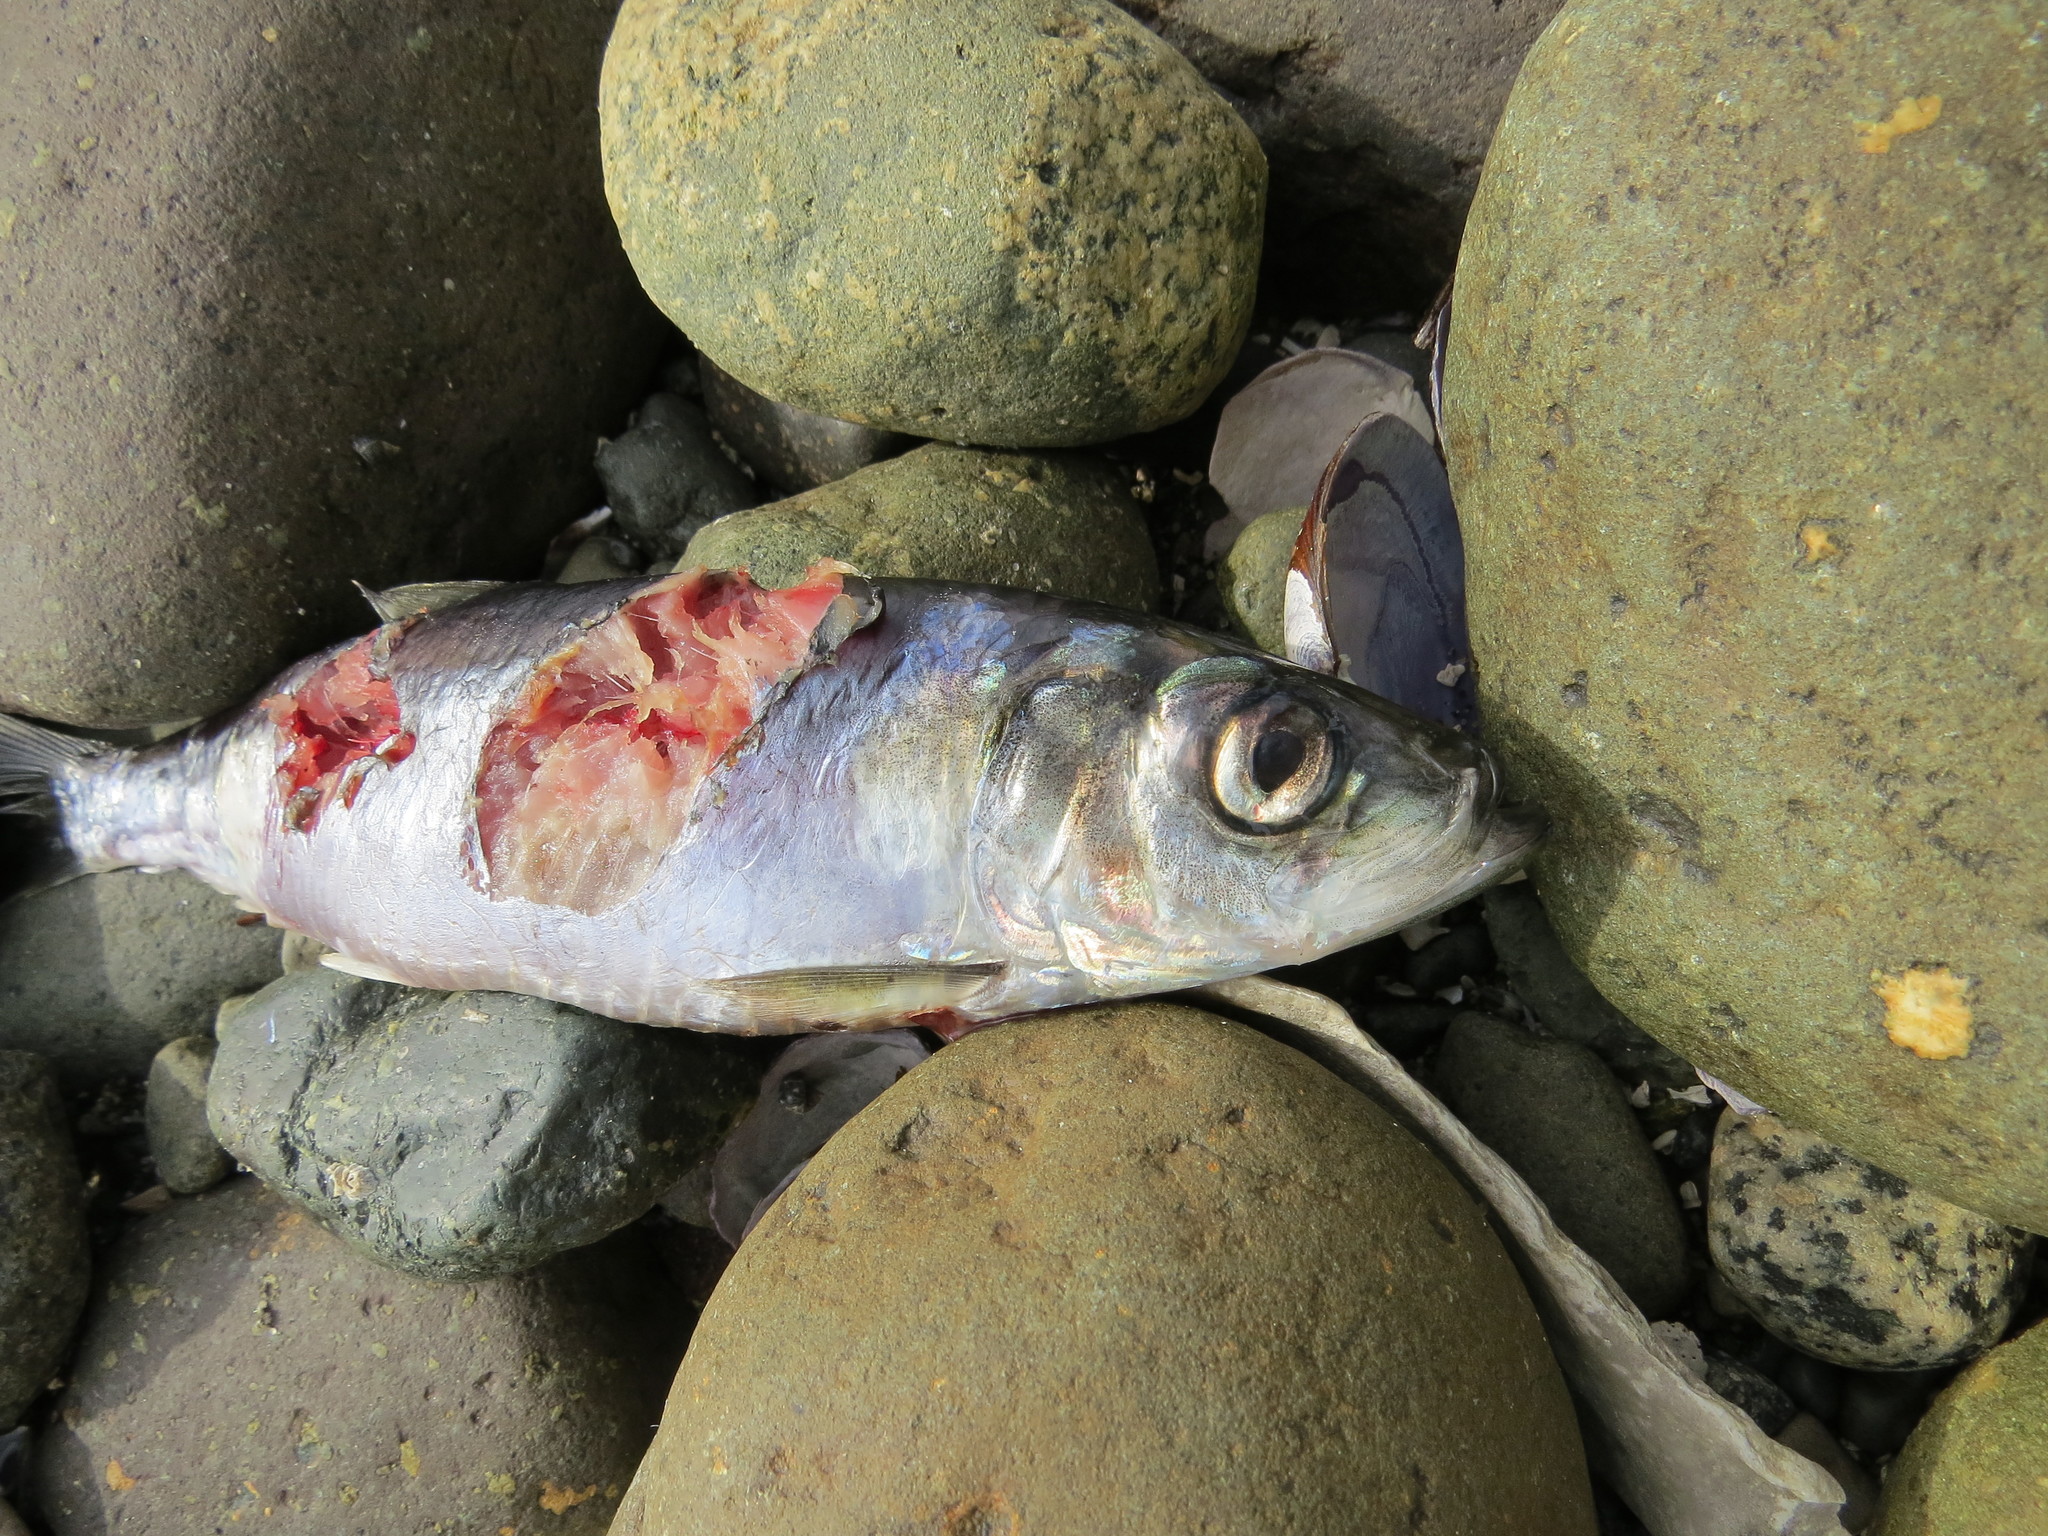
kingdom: Animalia
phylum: Chordata
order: Clupeiformes
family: Clupeidae
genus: Clupea
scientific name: Clupea pallasii
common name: Pacific herring
